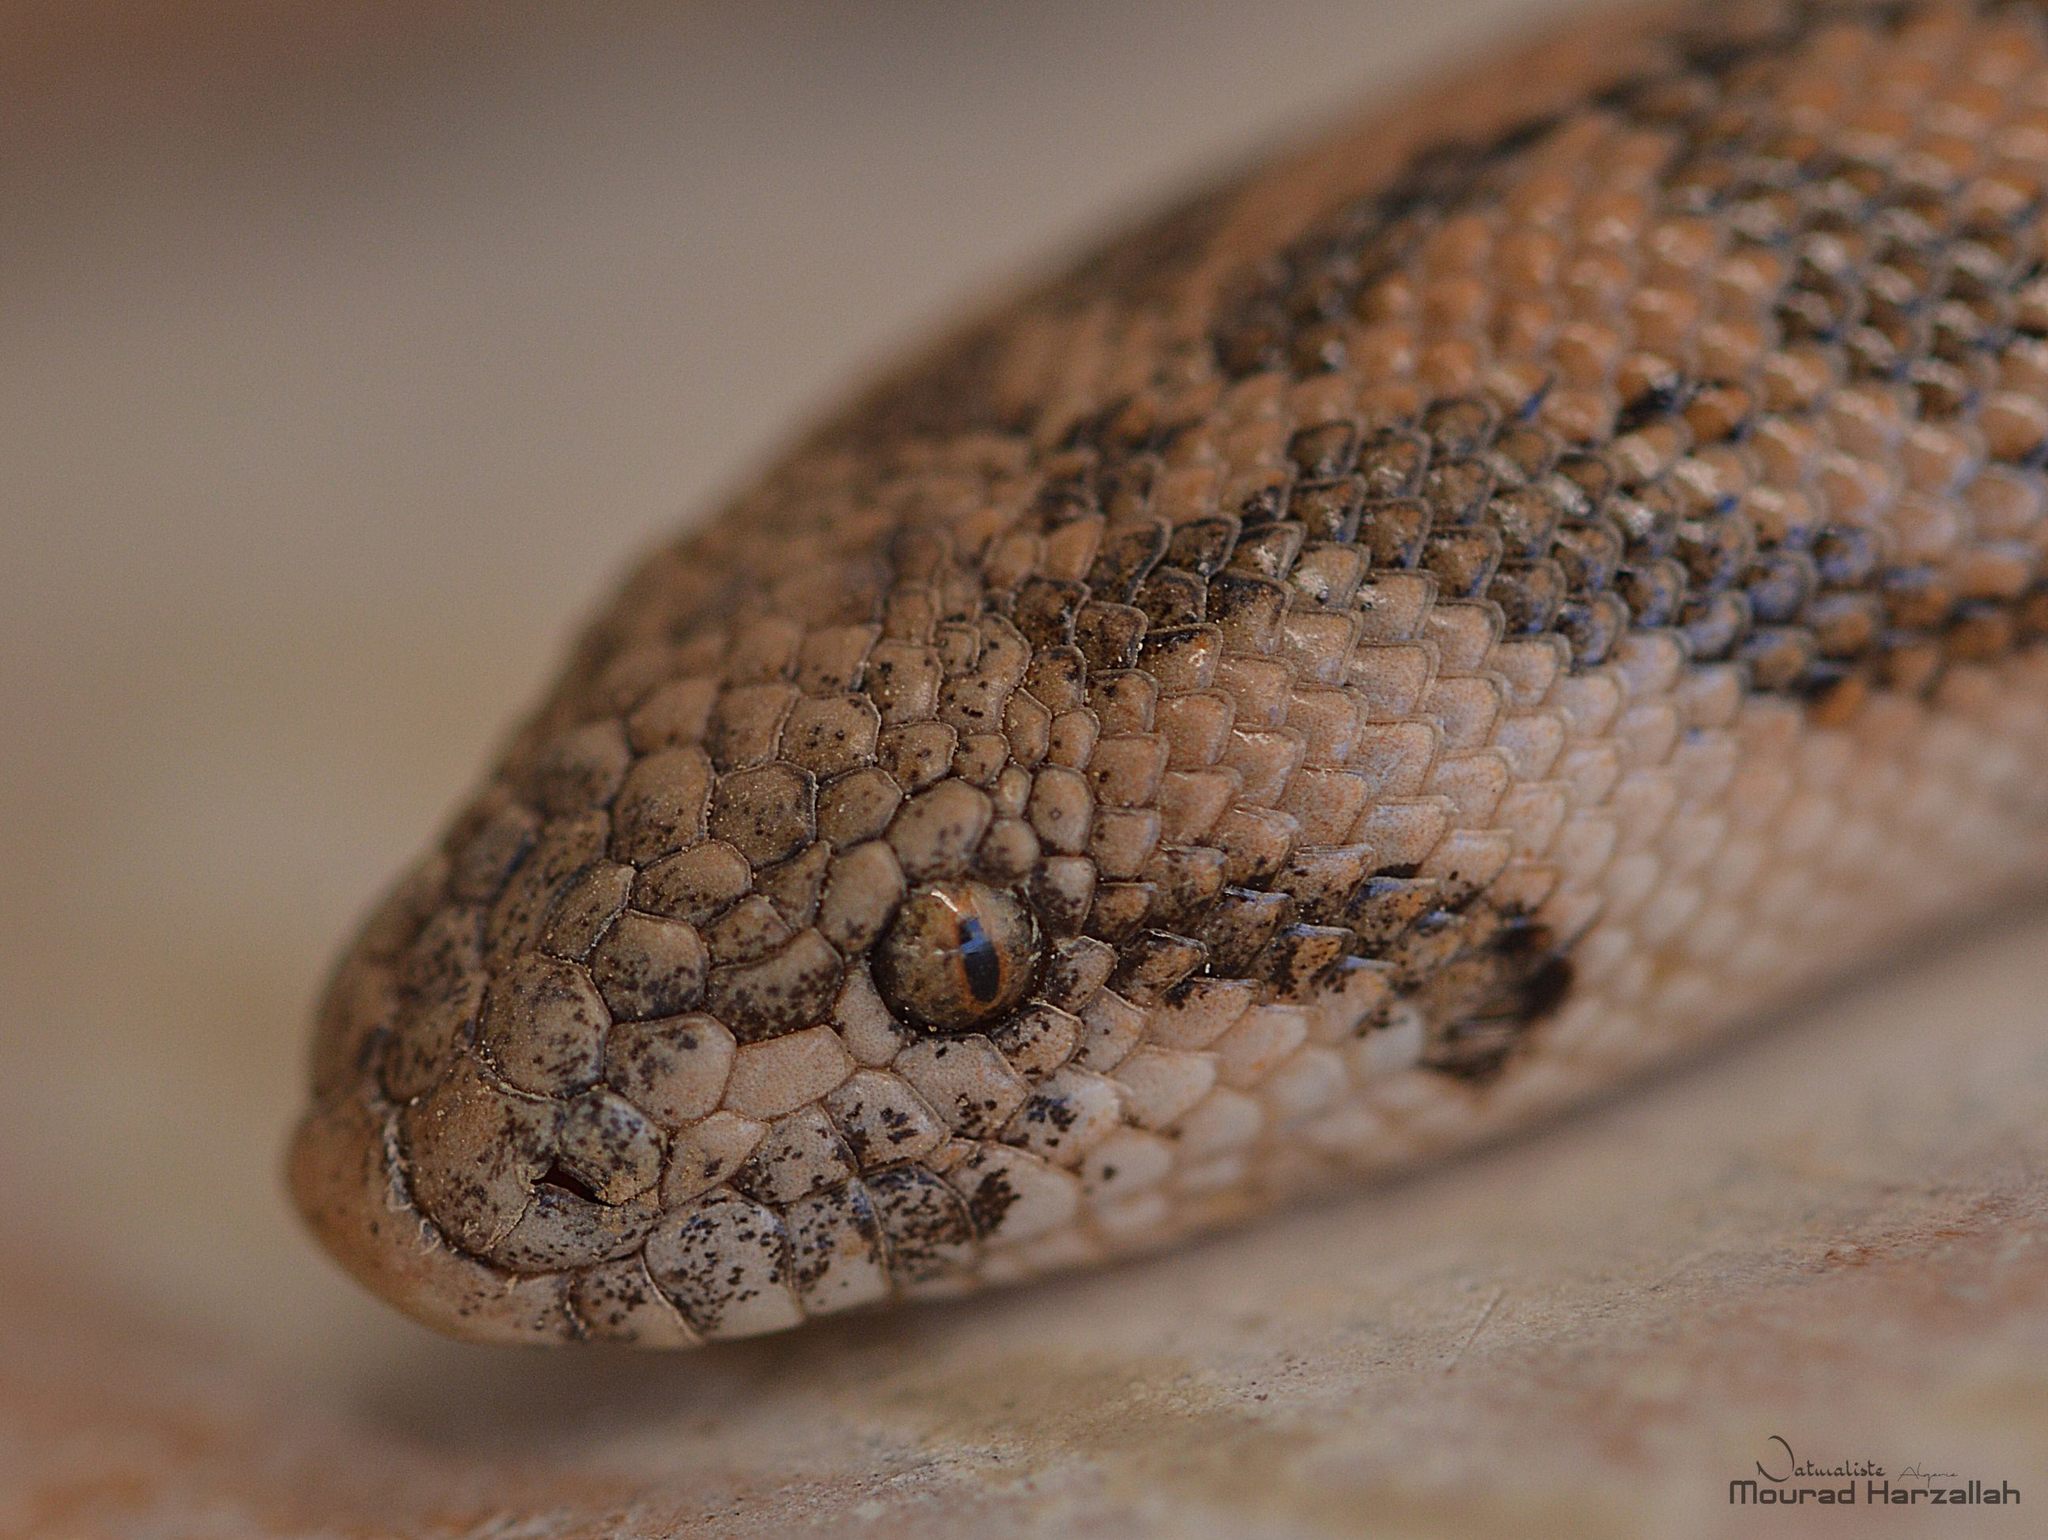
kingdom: Animalia
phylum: Chordata
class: Squamata
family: Boidae
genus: Eryx
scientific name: Eryx jaculus
